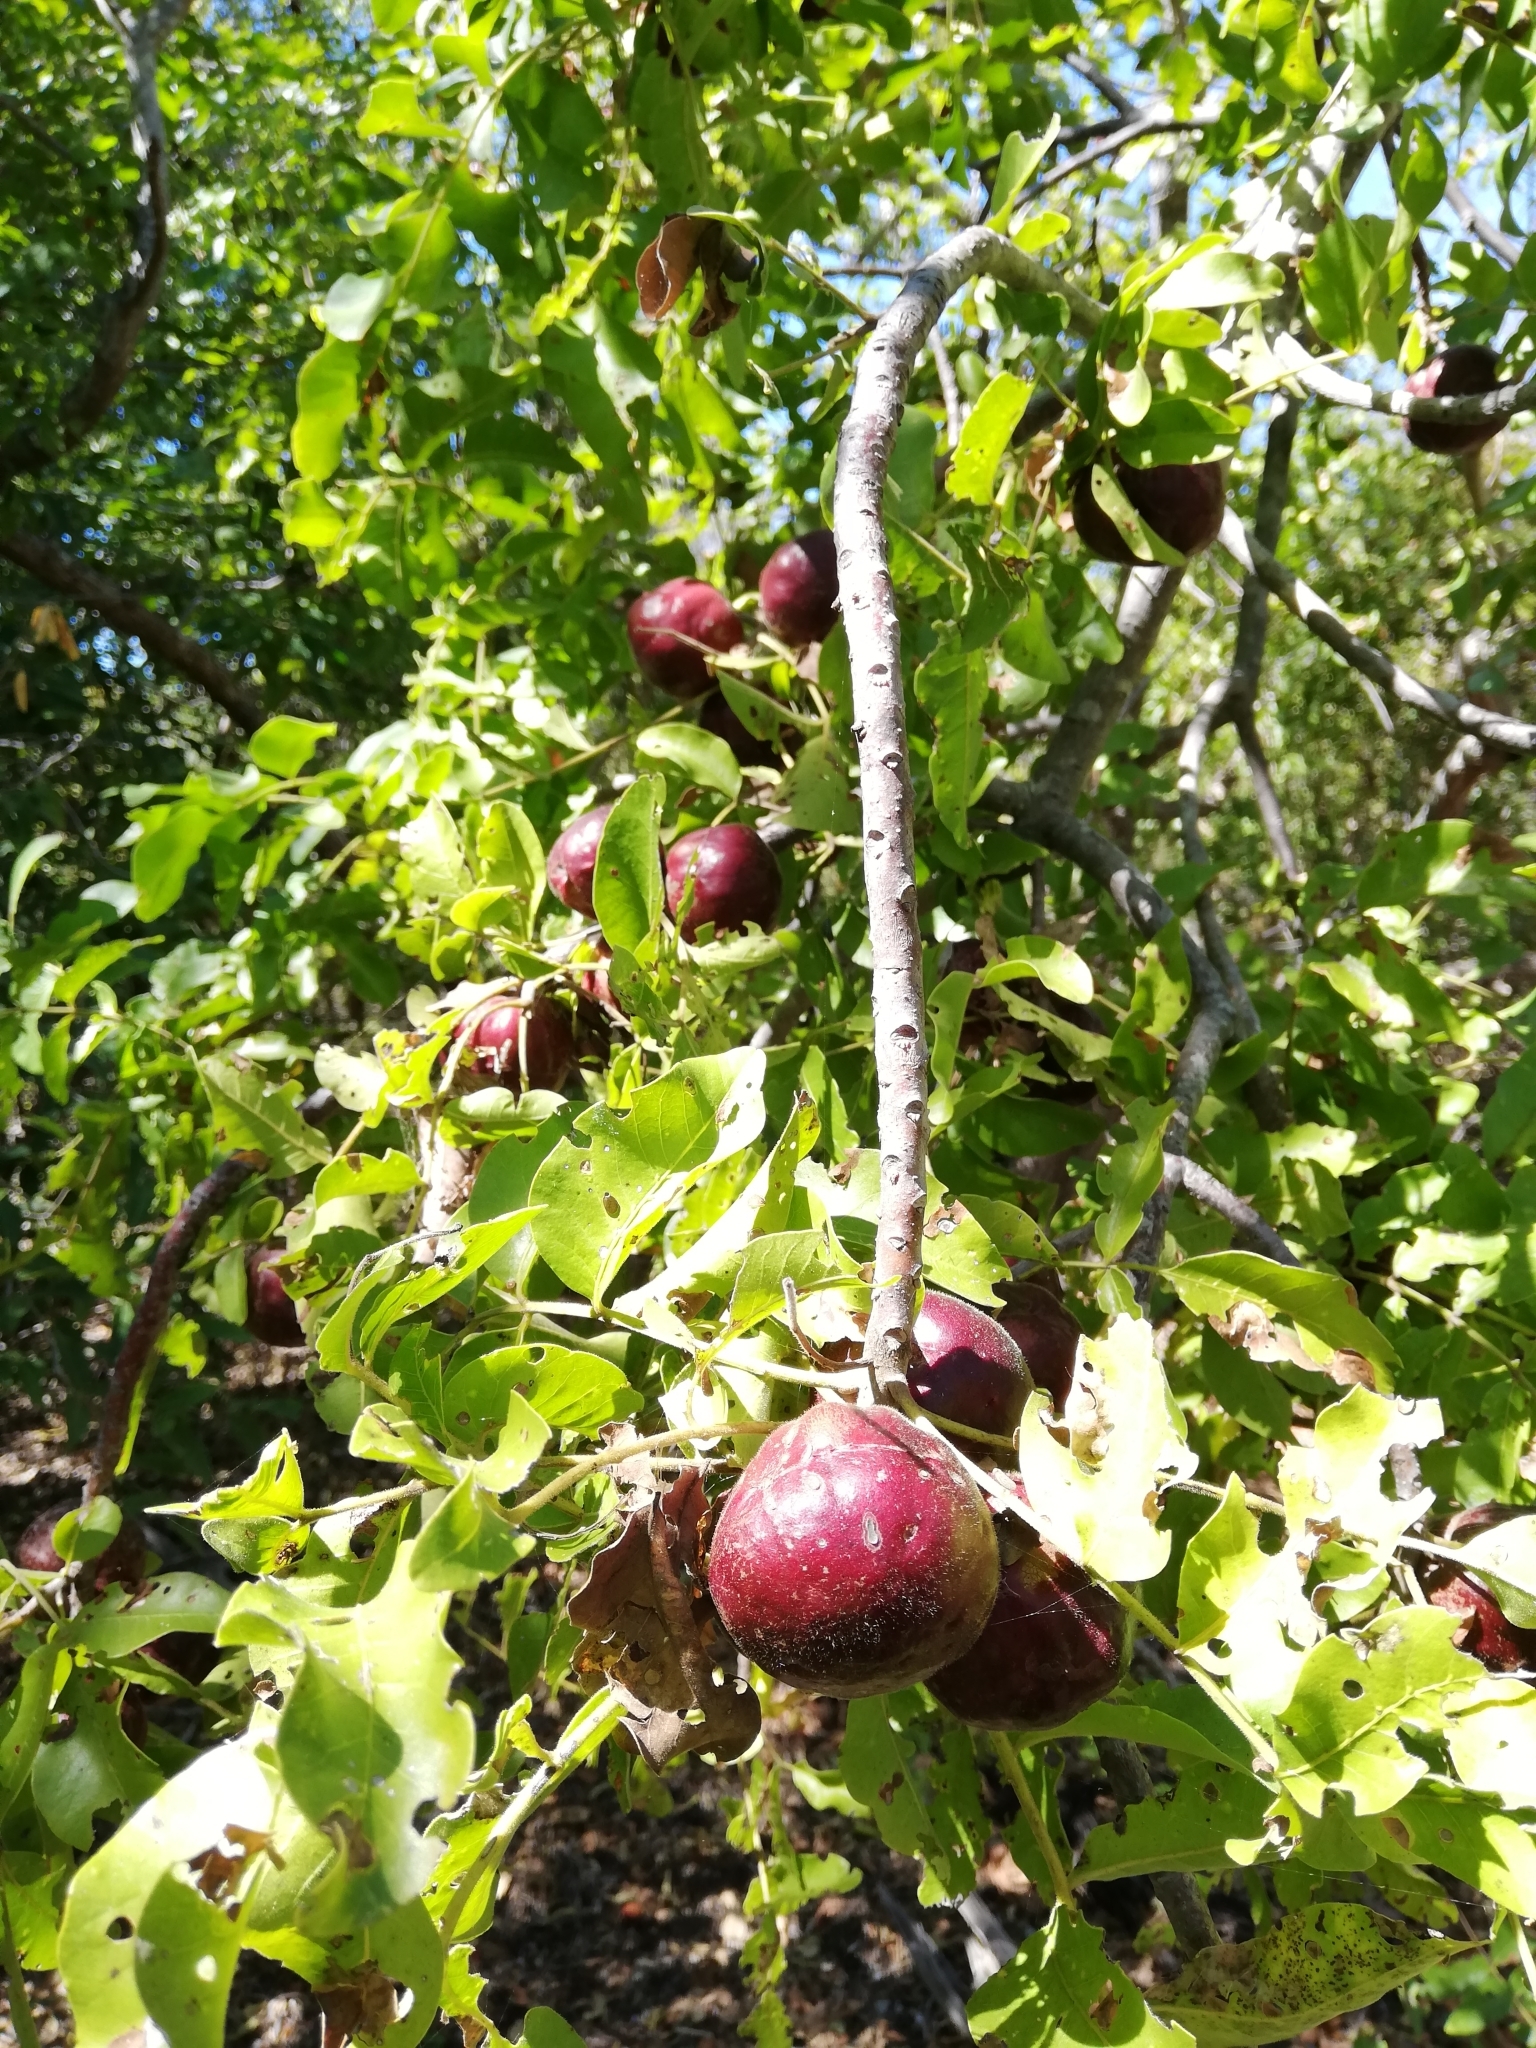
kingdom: Plantae
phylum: Tracheophyta
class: Magnoliopsida
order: Sapindales
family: Anacardiaceae
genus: Pleiogynium
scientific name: Pleiogynium timoriense
